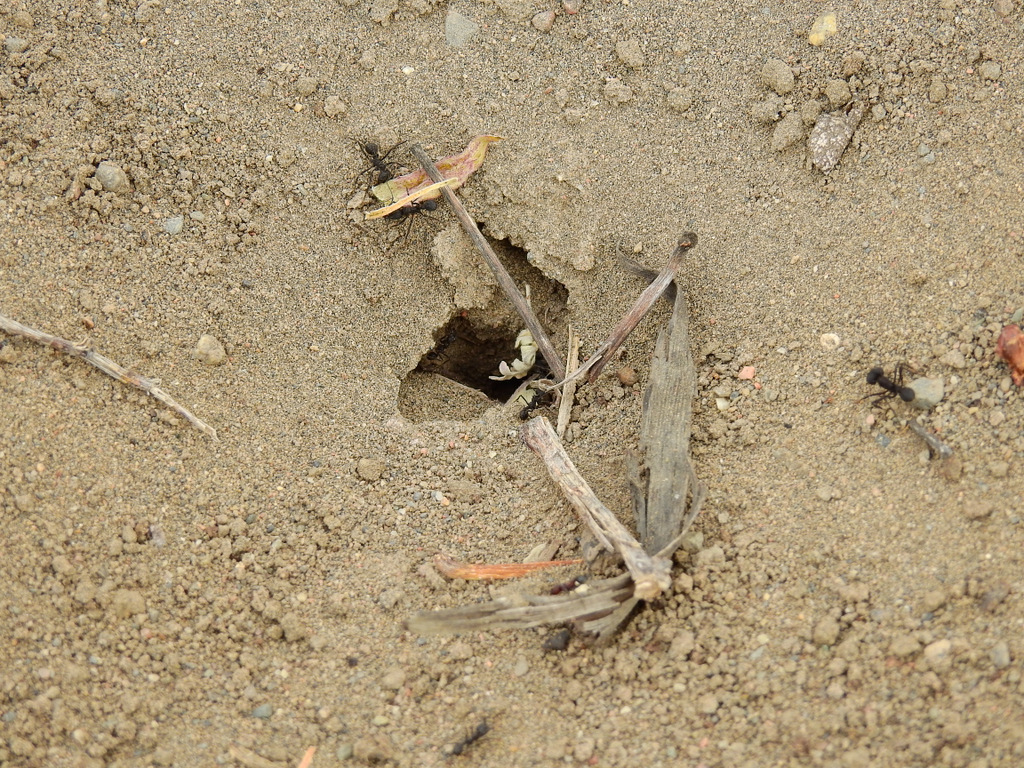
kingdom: Animalia
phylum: Arthropoda
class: Insecta
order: Hymenoptera
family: Formicidae
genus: Acromyrmex
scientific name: Acromyrmex lobicornis
